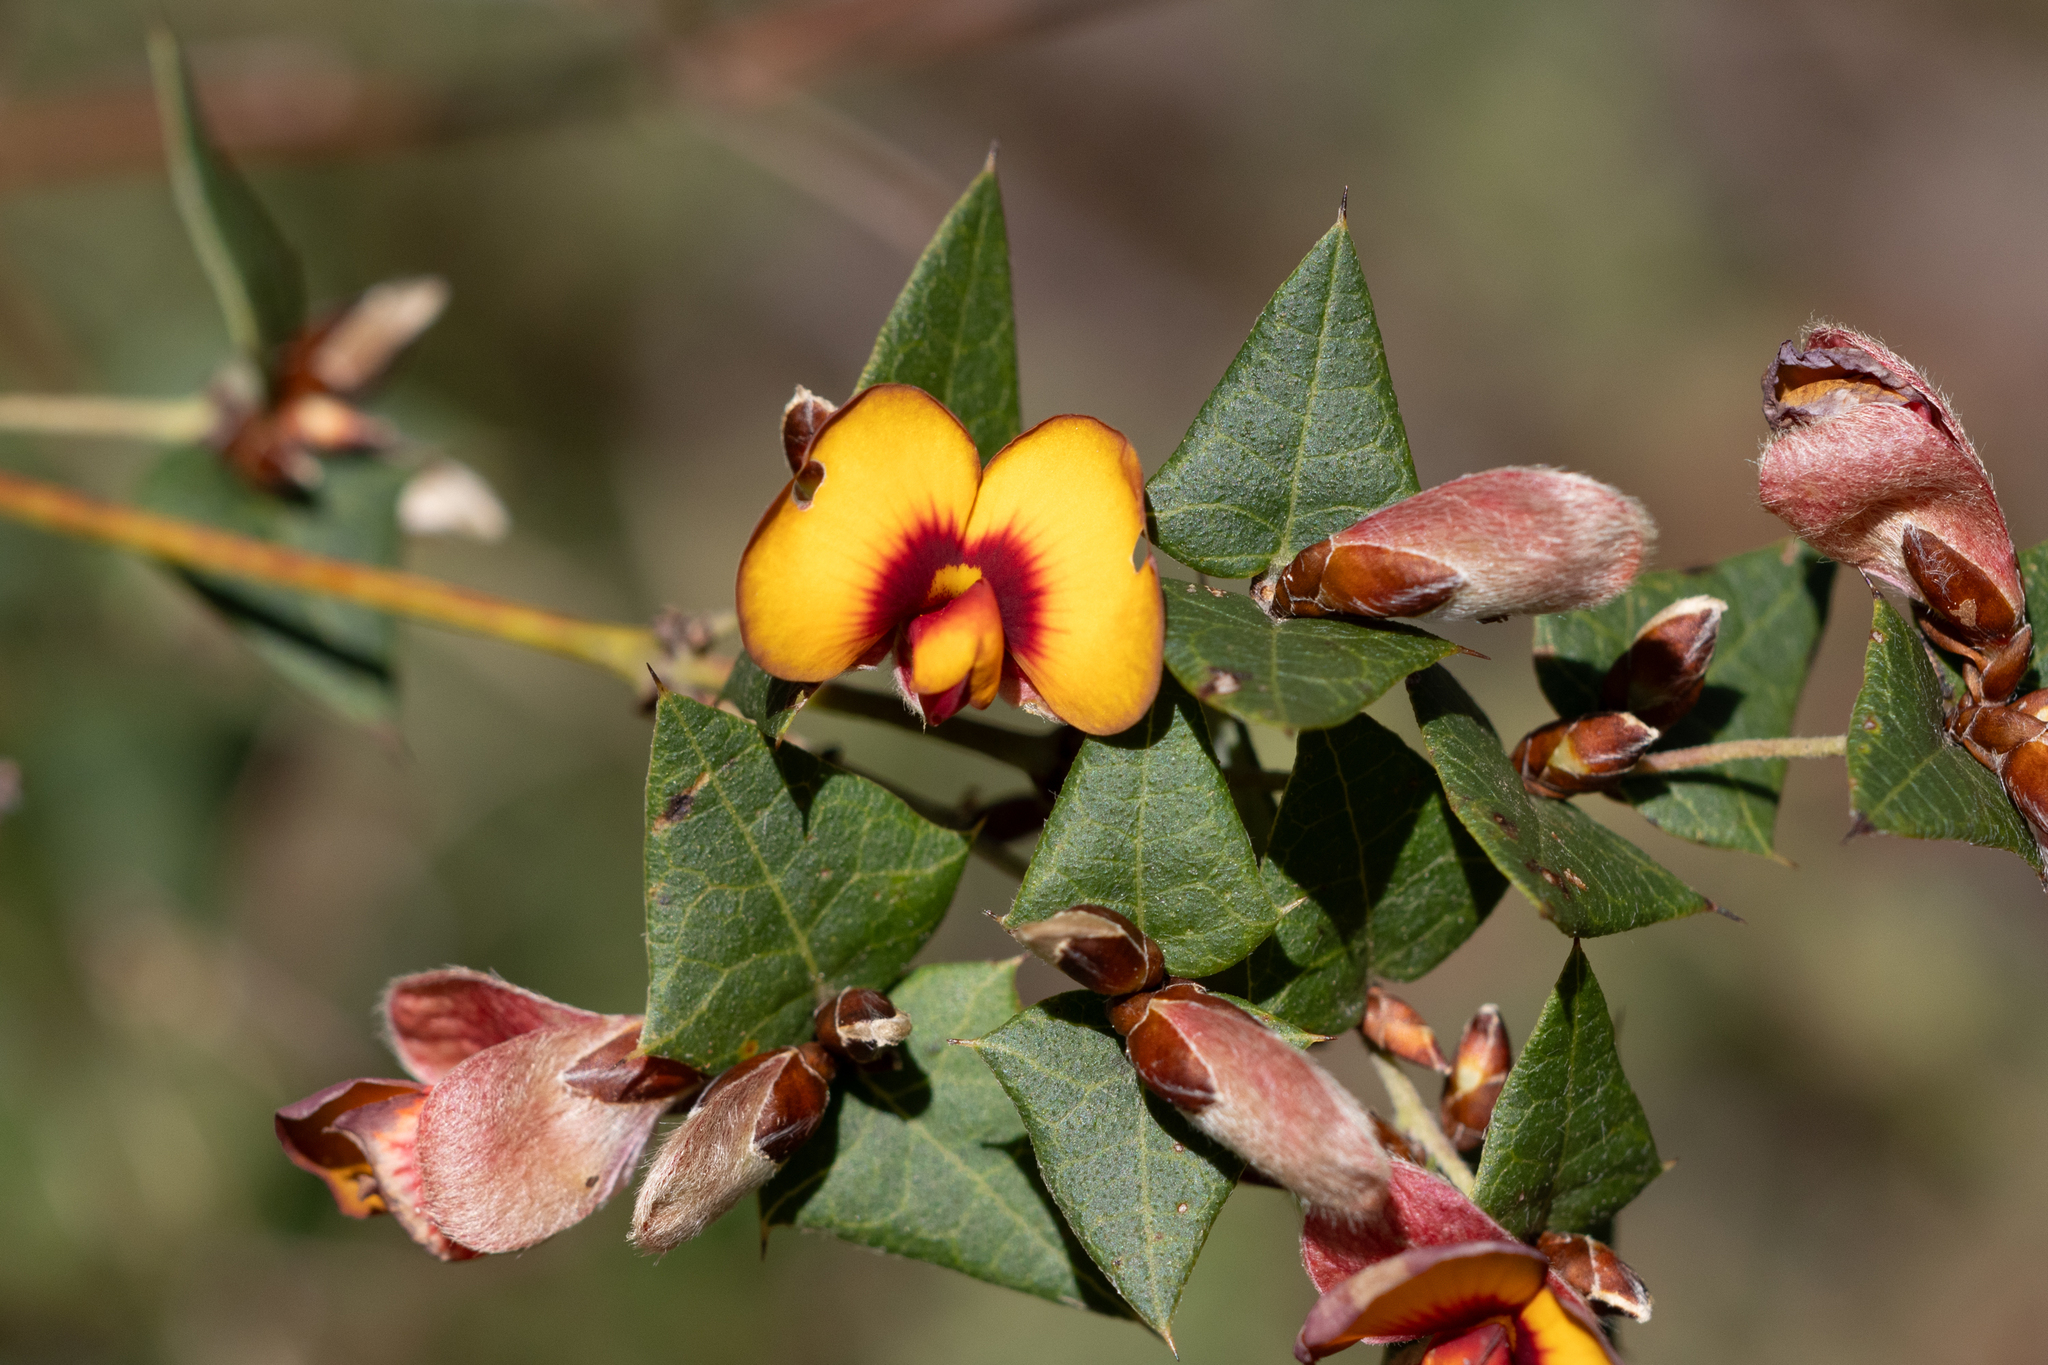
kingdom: Plantae
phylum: Tracheophyta
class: Magnoliopsida
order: Fabales
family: Fabaceae
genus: Platylobium
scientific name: Platylobium obtusangulum
